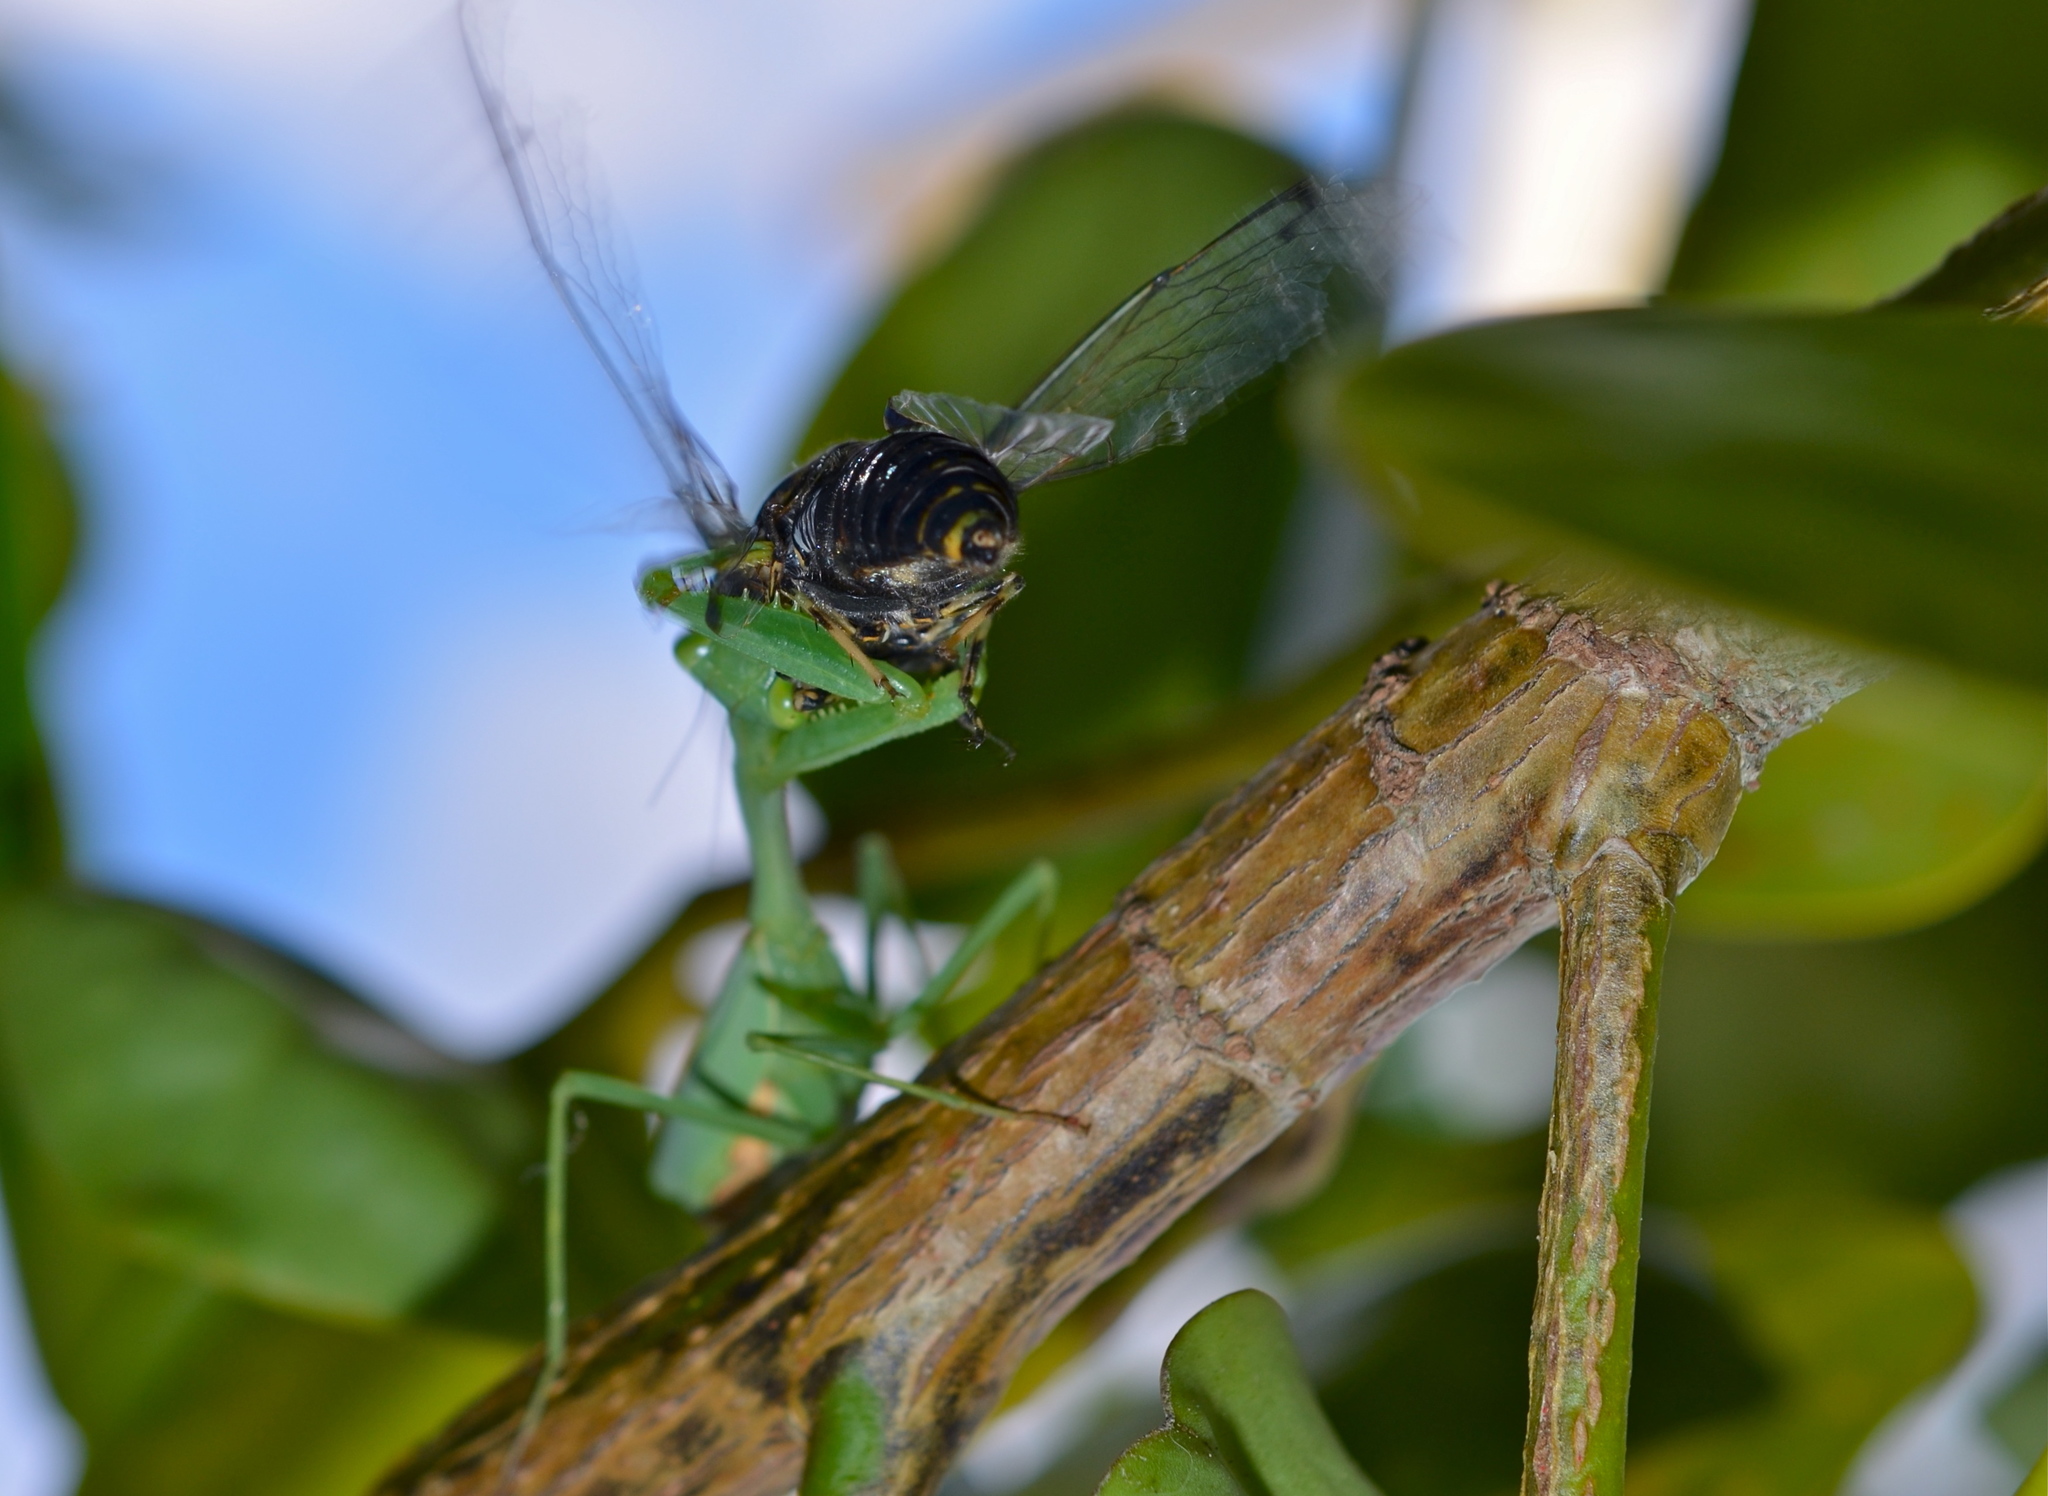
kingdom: Animalia
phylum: Arthropoda
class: Insecta
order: Mantodea
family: Miomantidae
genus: Miomantis
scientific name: Miomantis caffra
